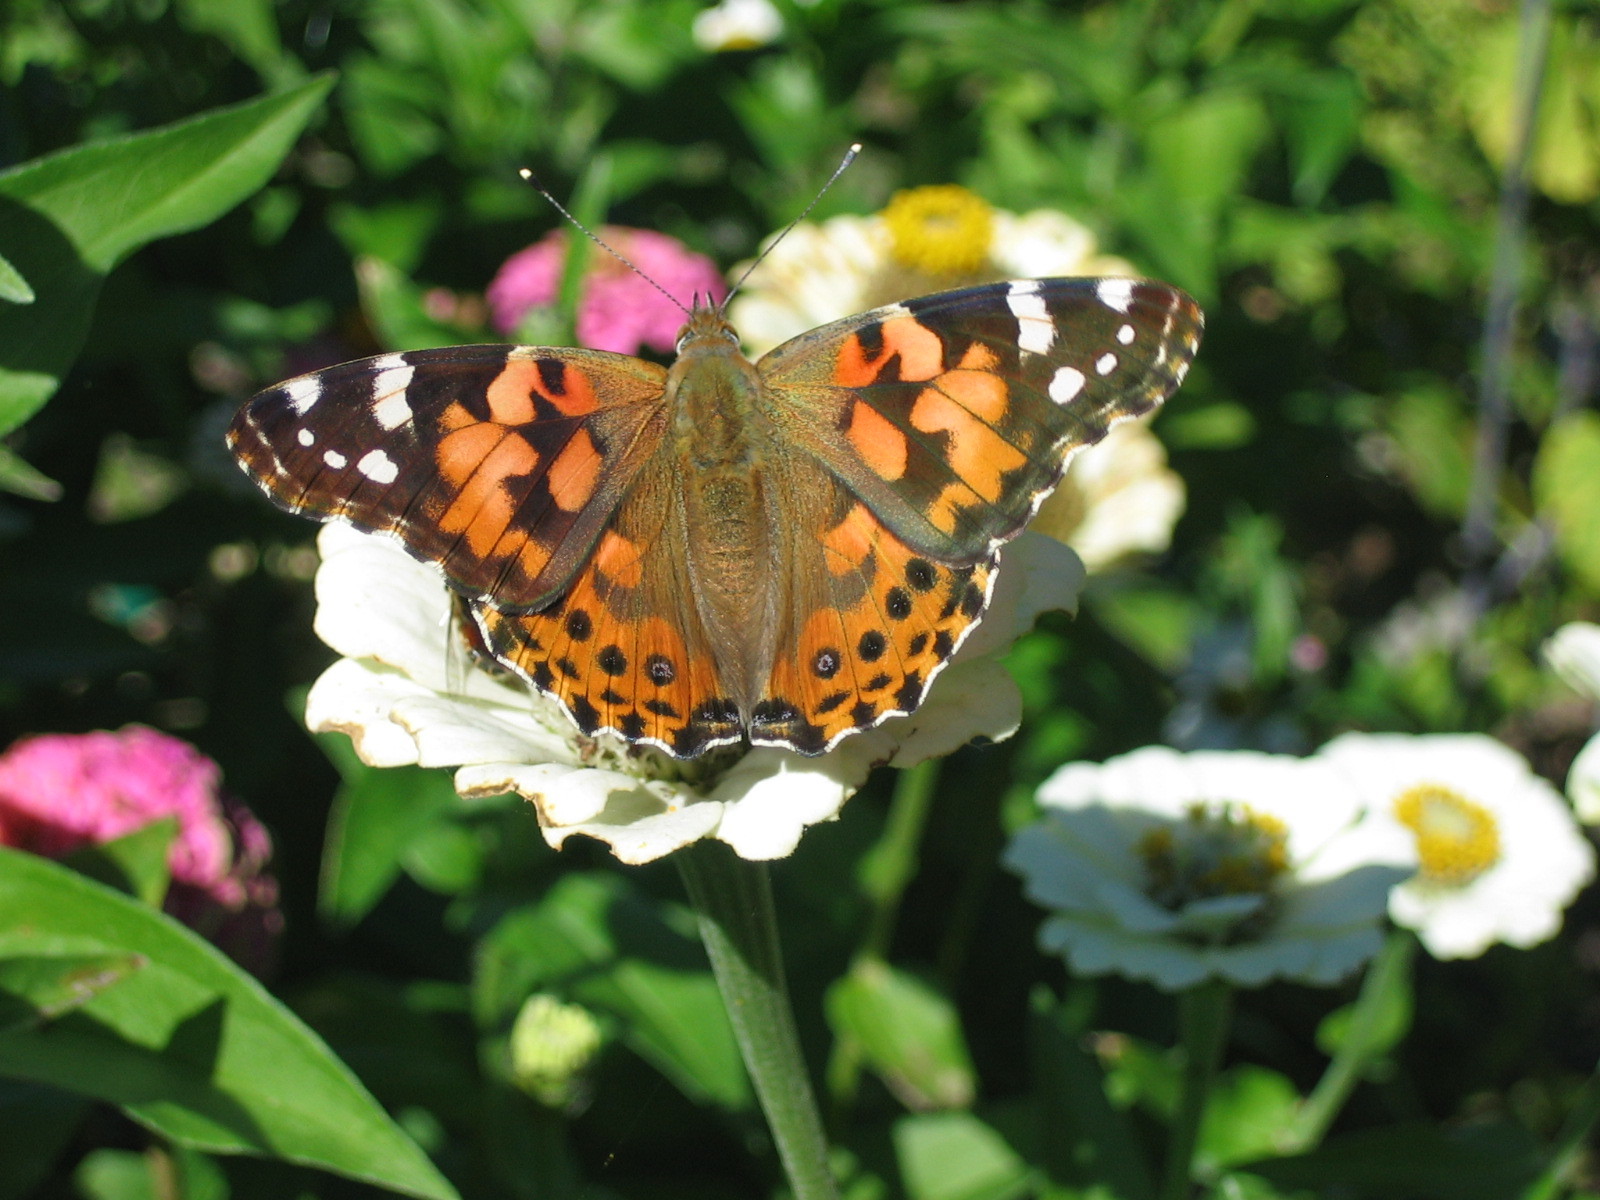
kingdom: Animalia
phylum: Arthropoda
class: Insecta
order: Lepidoptera
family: Nymphalidae
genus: Vanessa
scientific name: Vanessa cardui
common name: Painted lady
